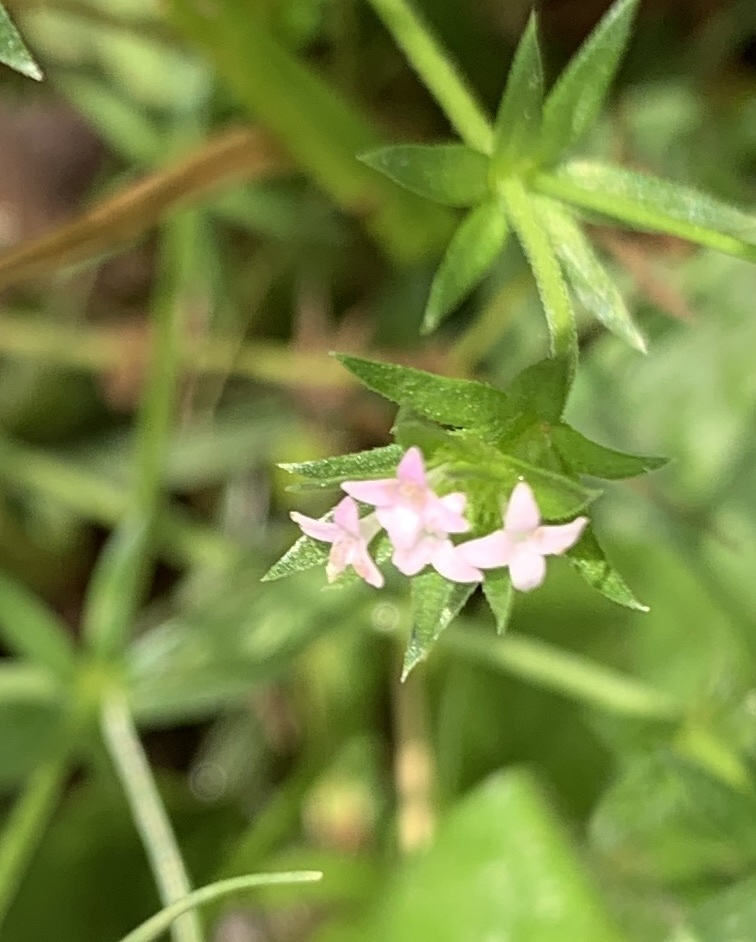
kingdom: Plantae
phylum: Tracheophyta
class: Magnoliopsida
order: Gentianales
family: Rubiaceae
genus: Sherardia
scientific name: Sherardia arvensis
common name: Field madder
